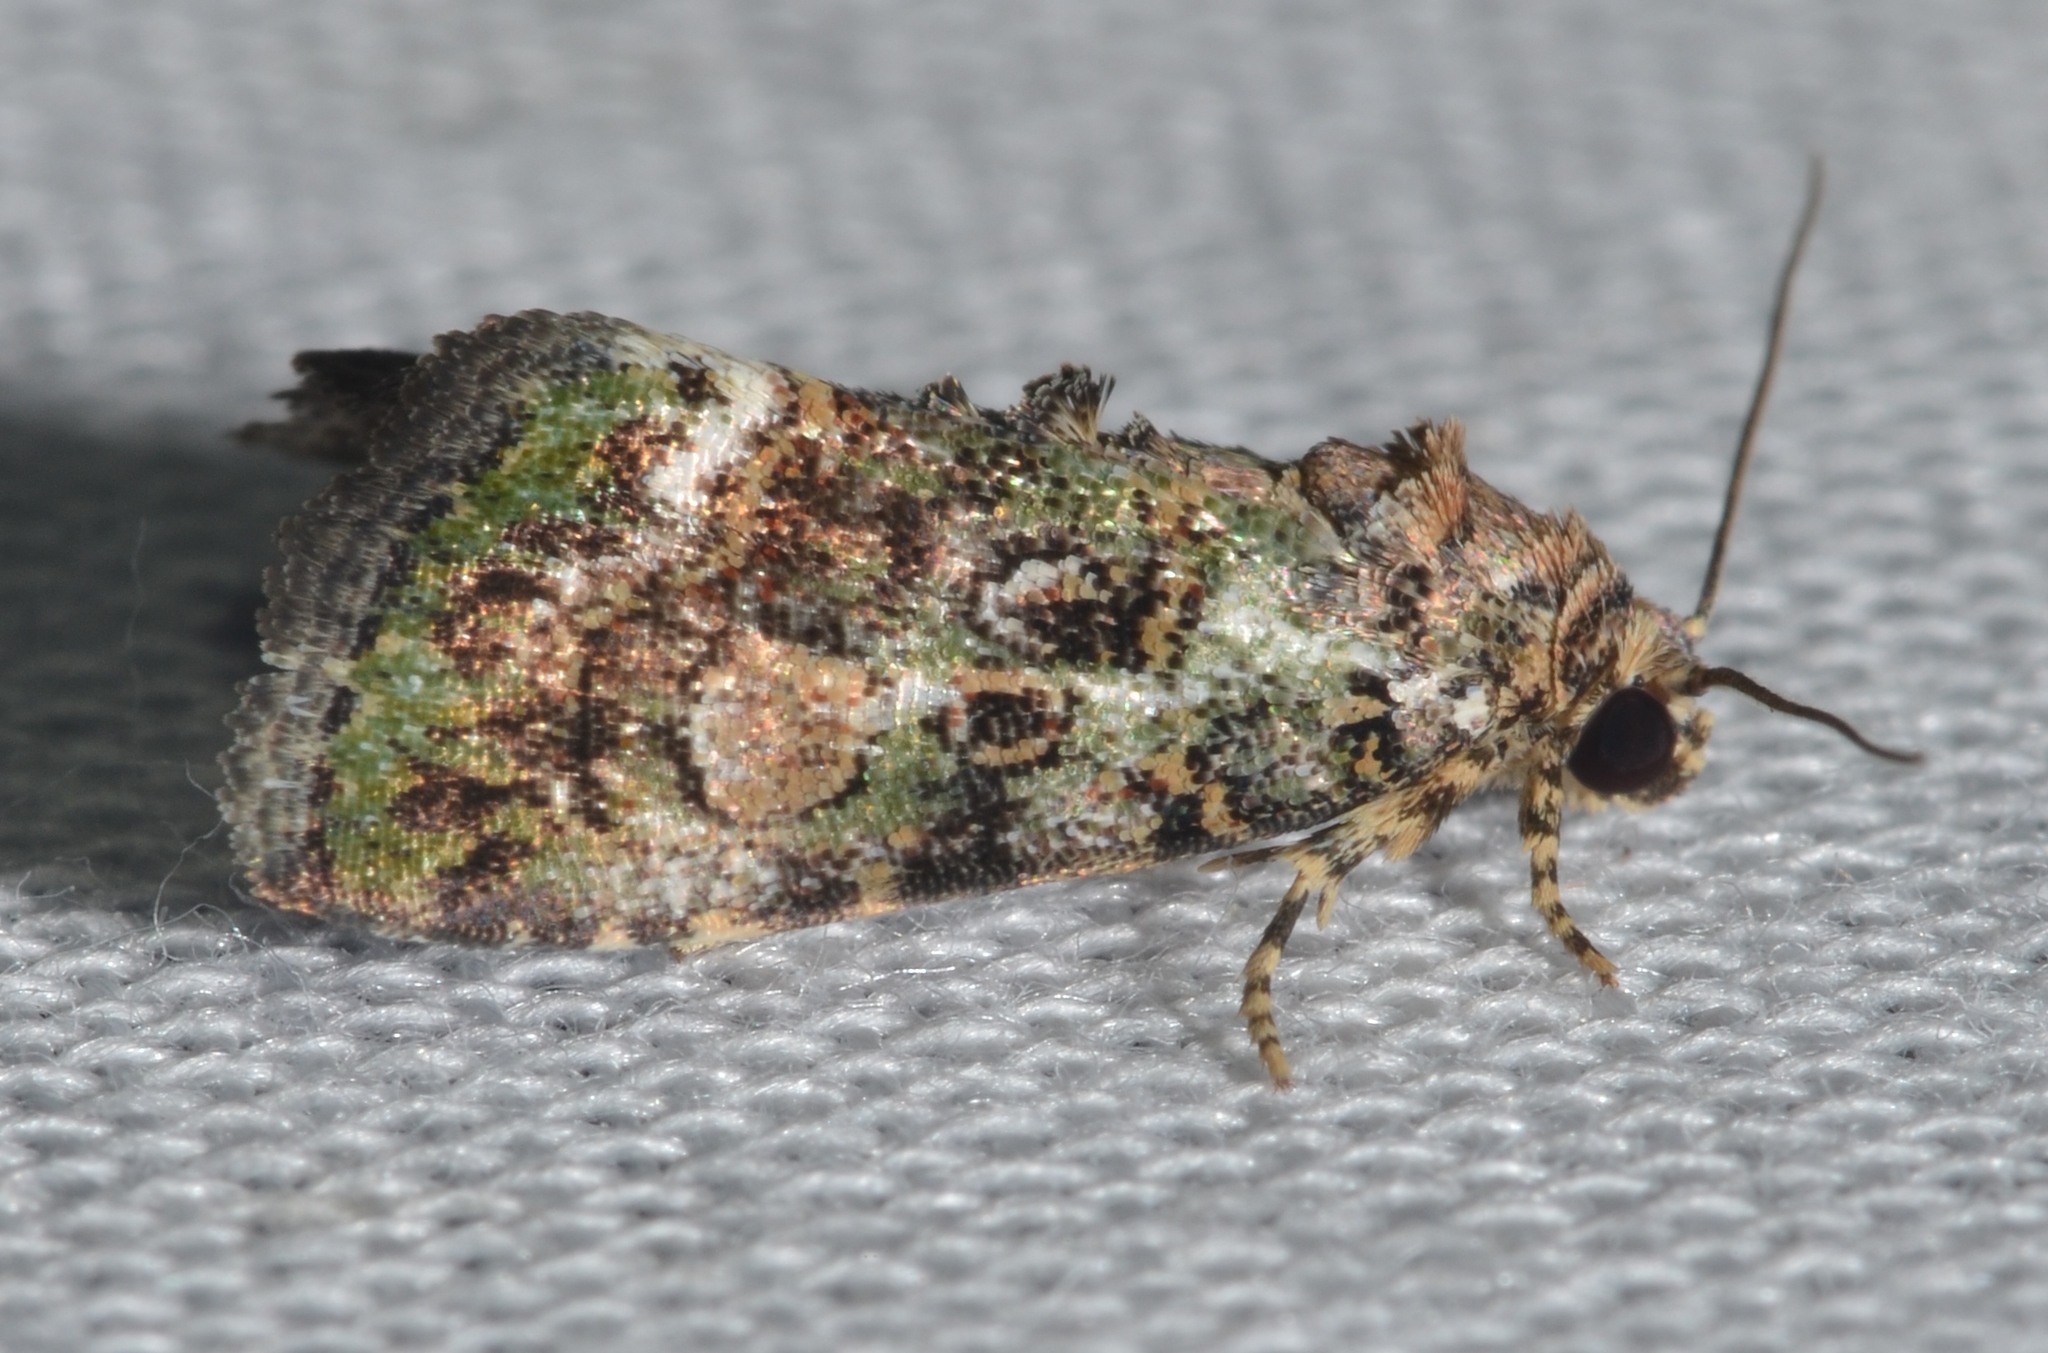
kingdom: Animalia
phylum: Arthropoda
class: Insecta
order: Lepidoptera
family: Noctuidae
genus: Lithacodia
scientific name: Lithacodia musta
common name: Small mossy glyph
